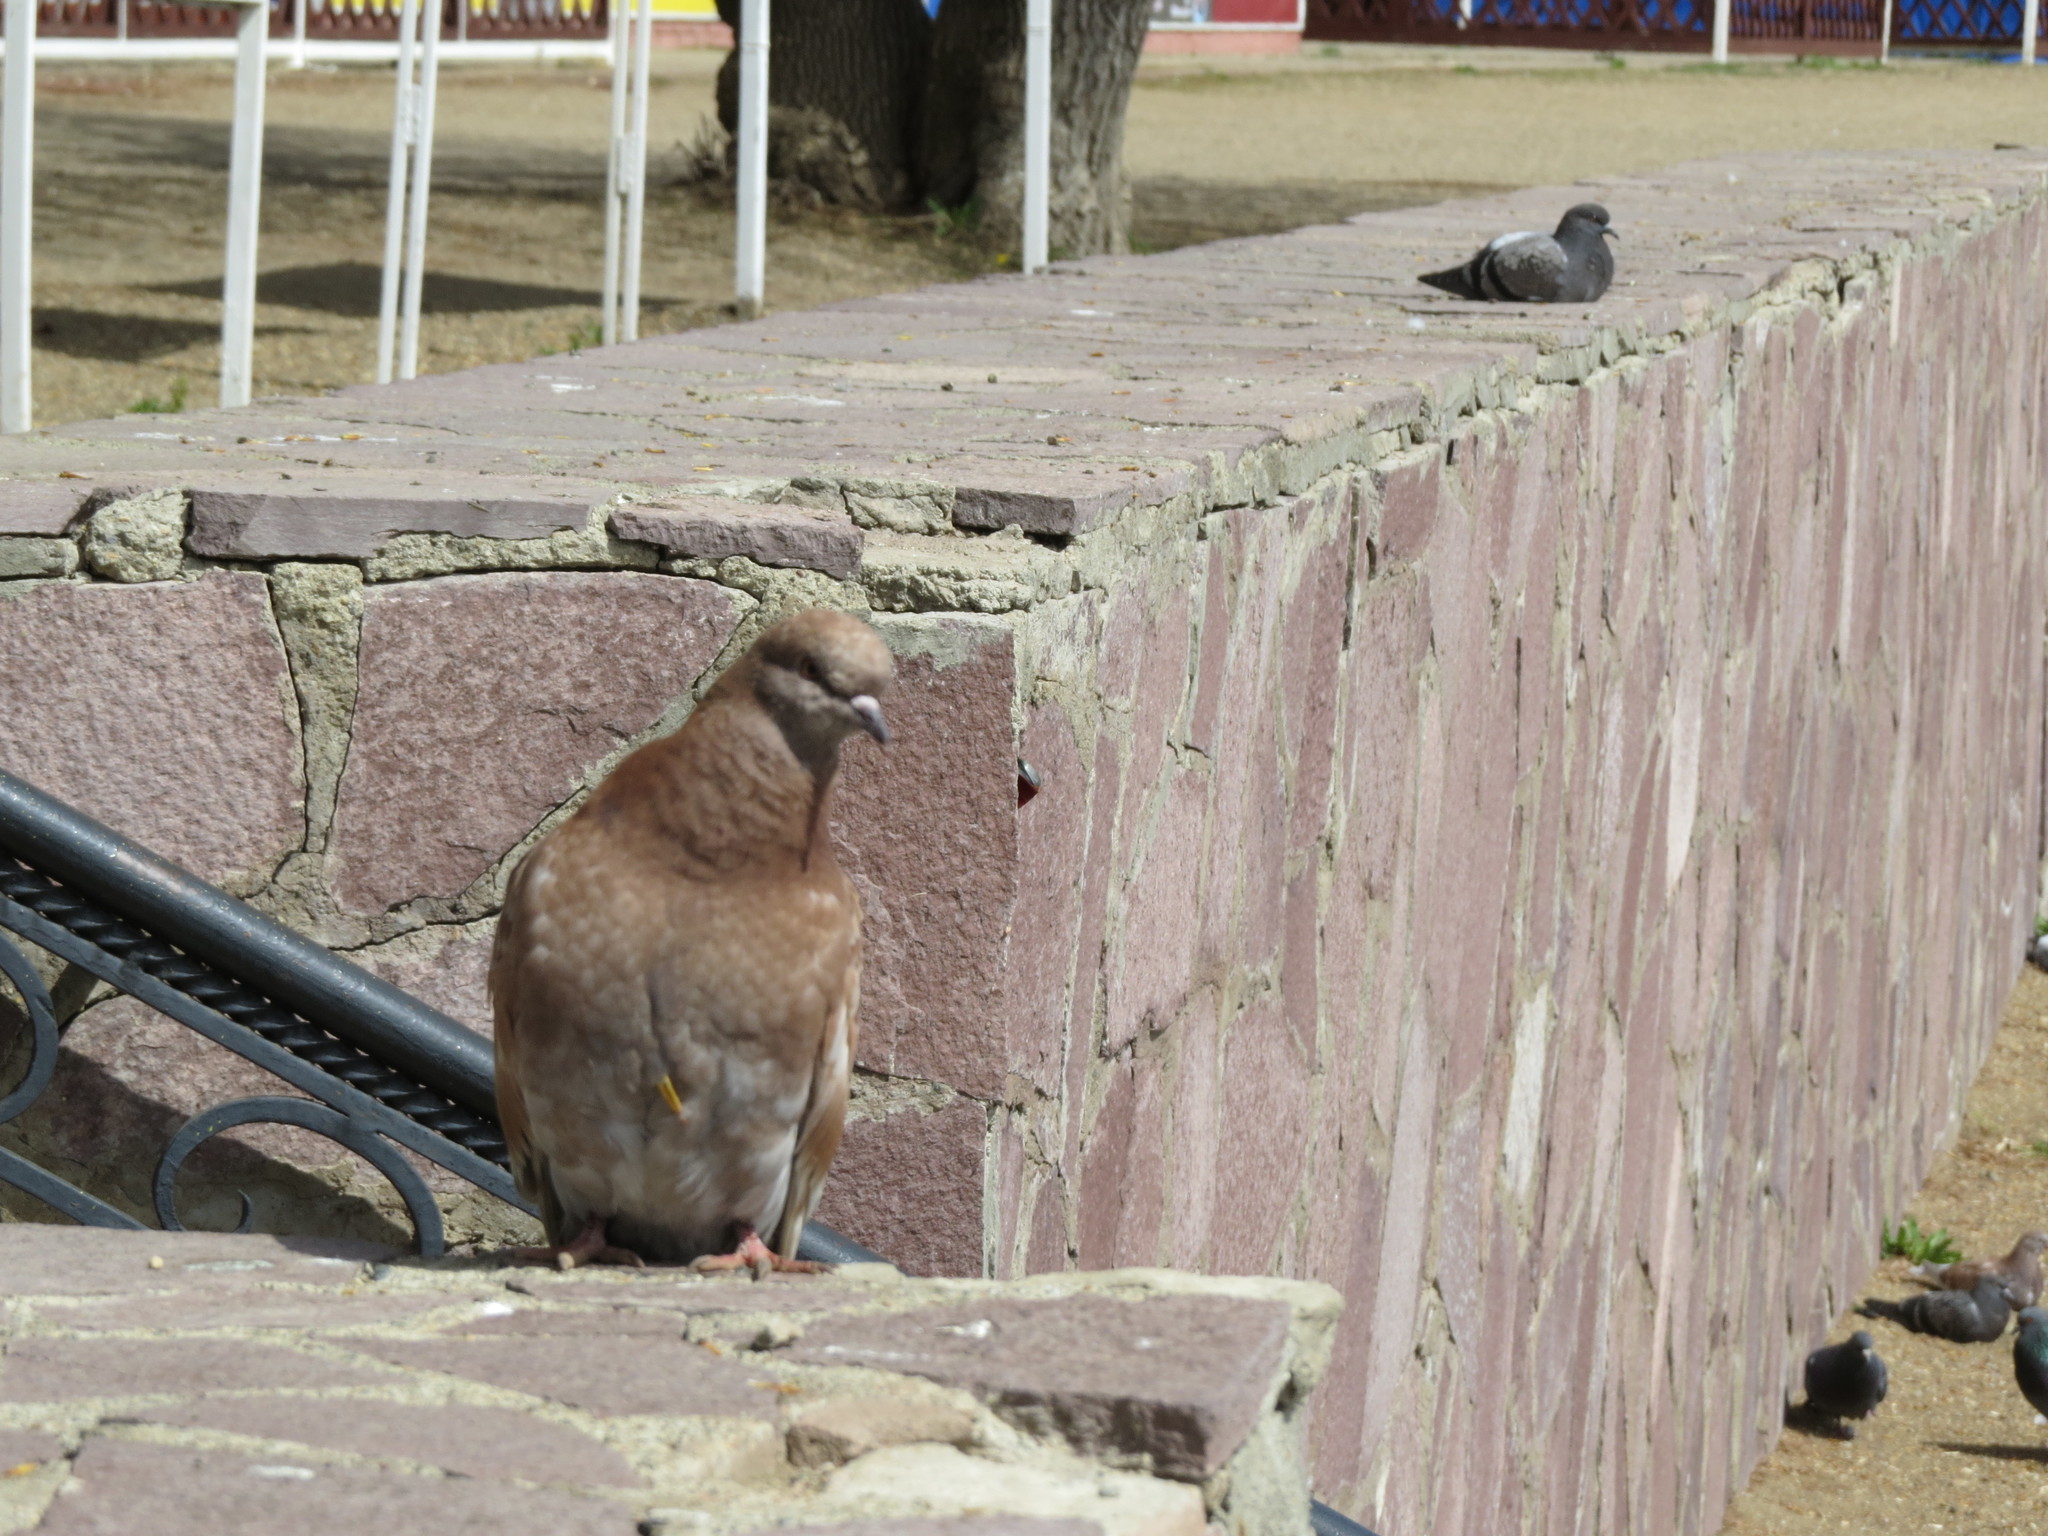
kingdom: Animalia
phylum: Chordata
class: Aves
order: Columbiformes
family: Columbidae
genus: Columba
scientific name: Columba livia
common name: Rock pigeon
